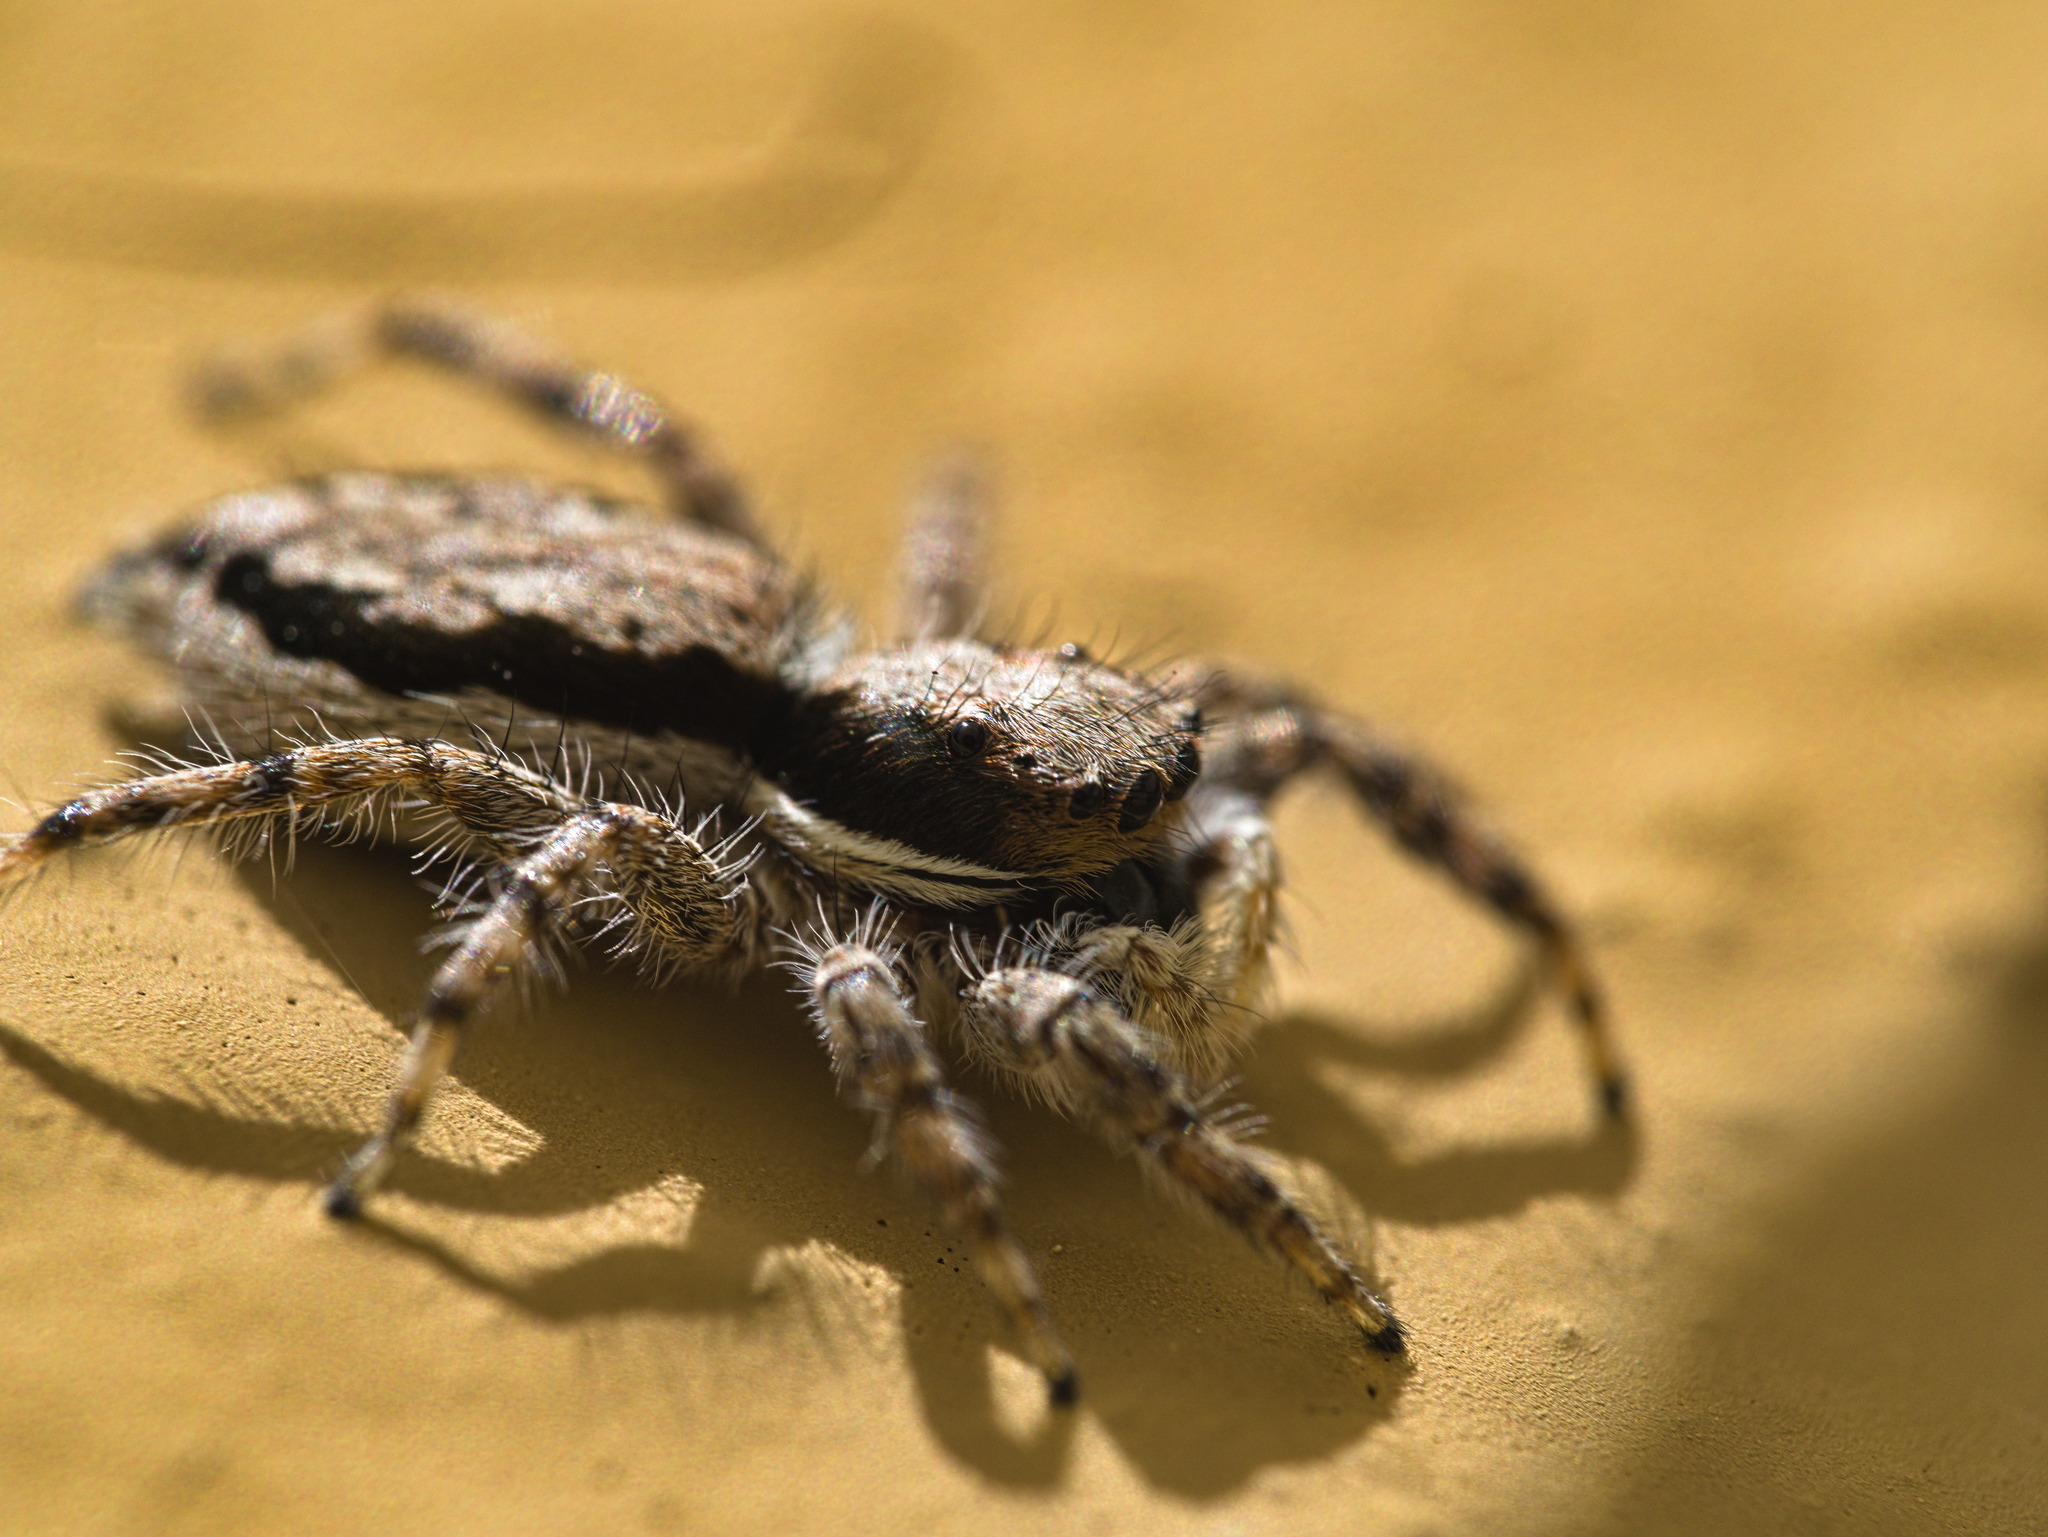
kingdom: Animalia
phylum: Arthropoda
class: Arachnida
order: Araneae
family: Salticidae
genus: Menemerus
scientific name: Menemerus bivittatus
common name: Gray wall jumper
